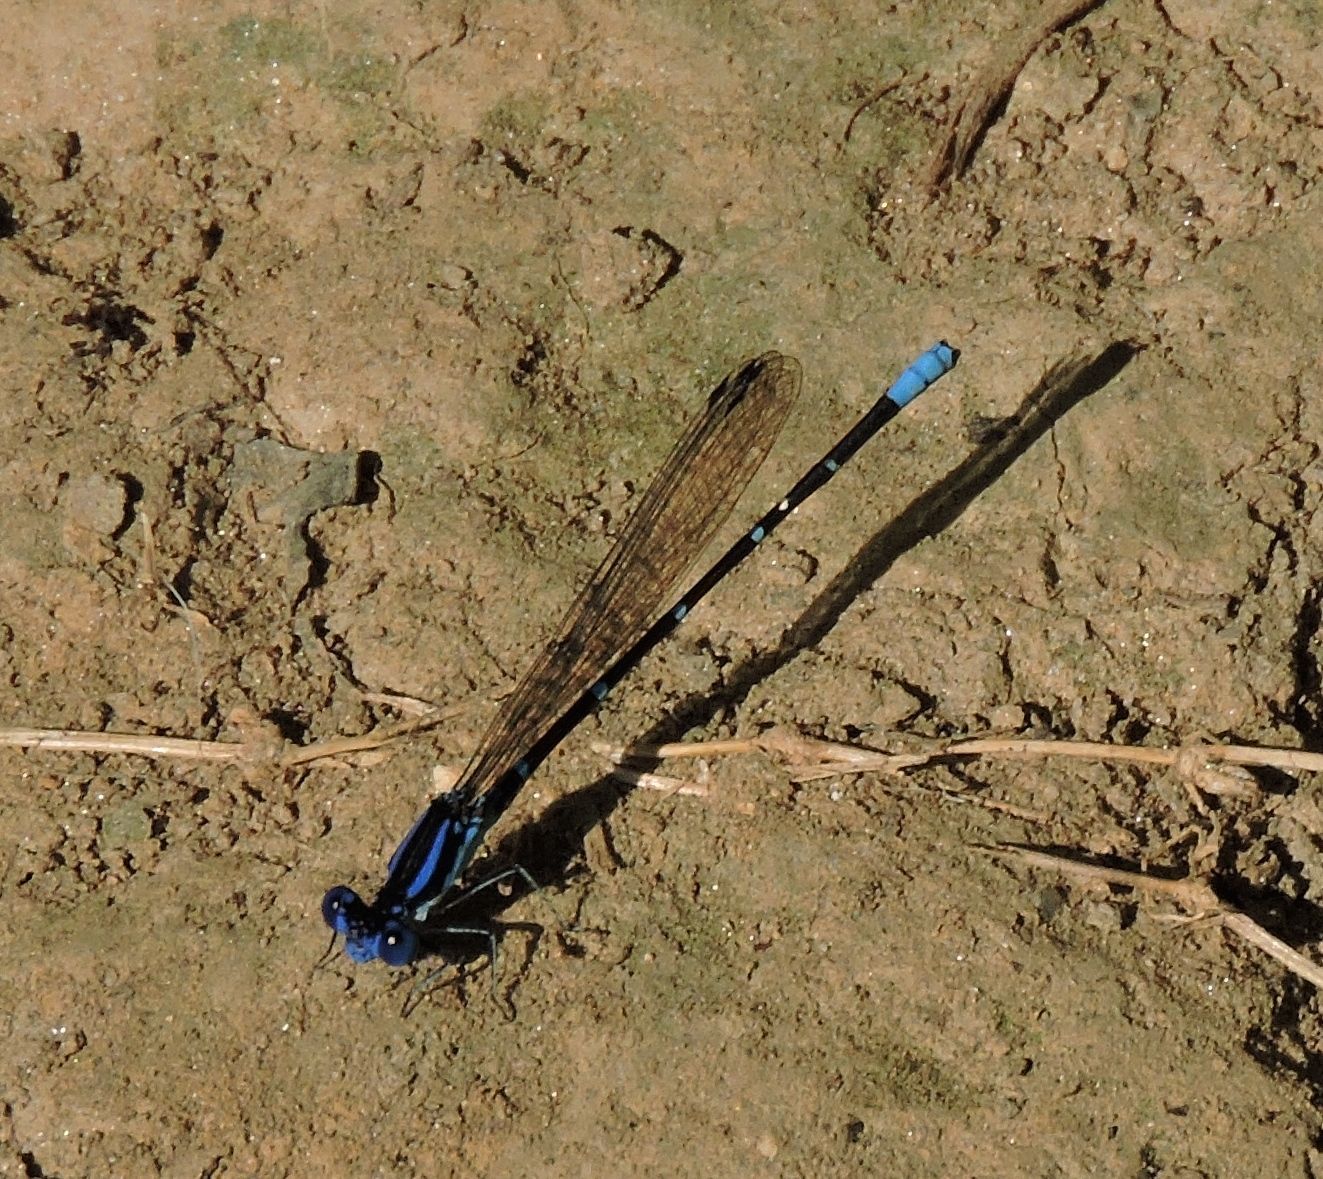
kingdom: Animalia
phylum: Arthropoda
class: Insecta
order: Odonata
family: Coenagrionidae
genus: Argia
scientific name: Argia sedula
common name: Blue-ringed dancer
